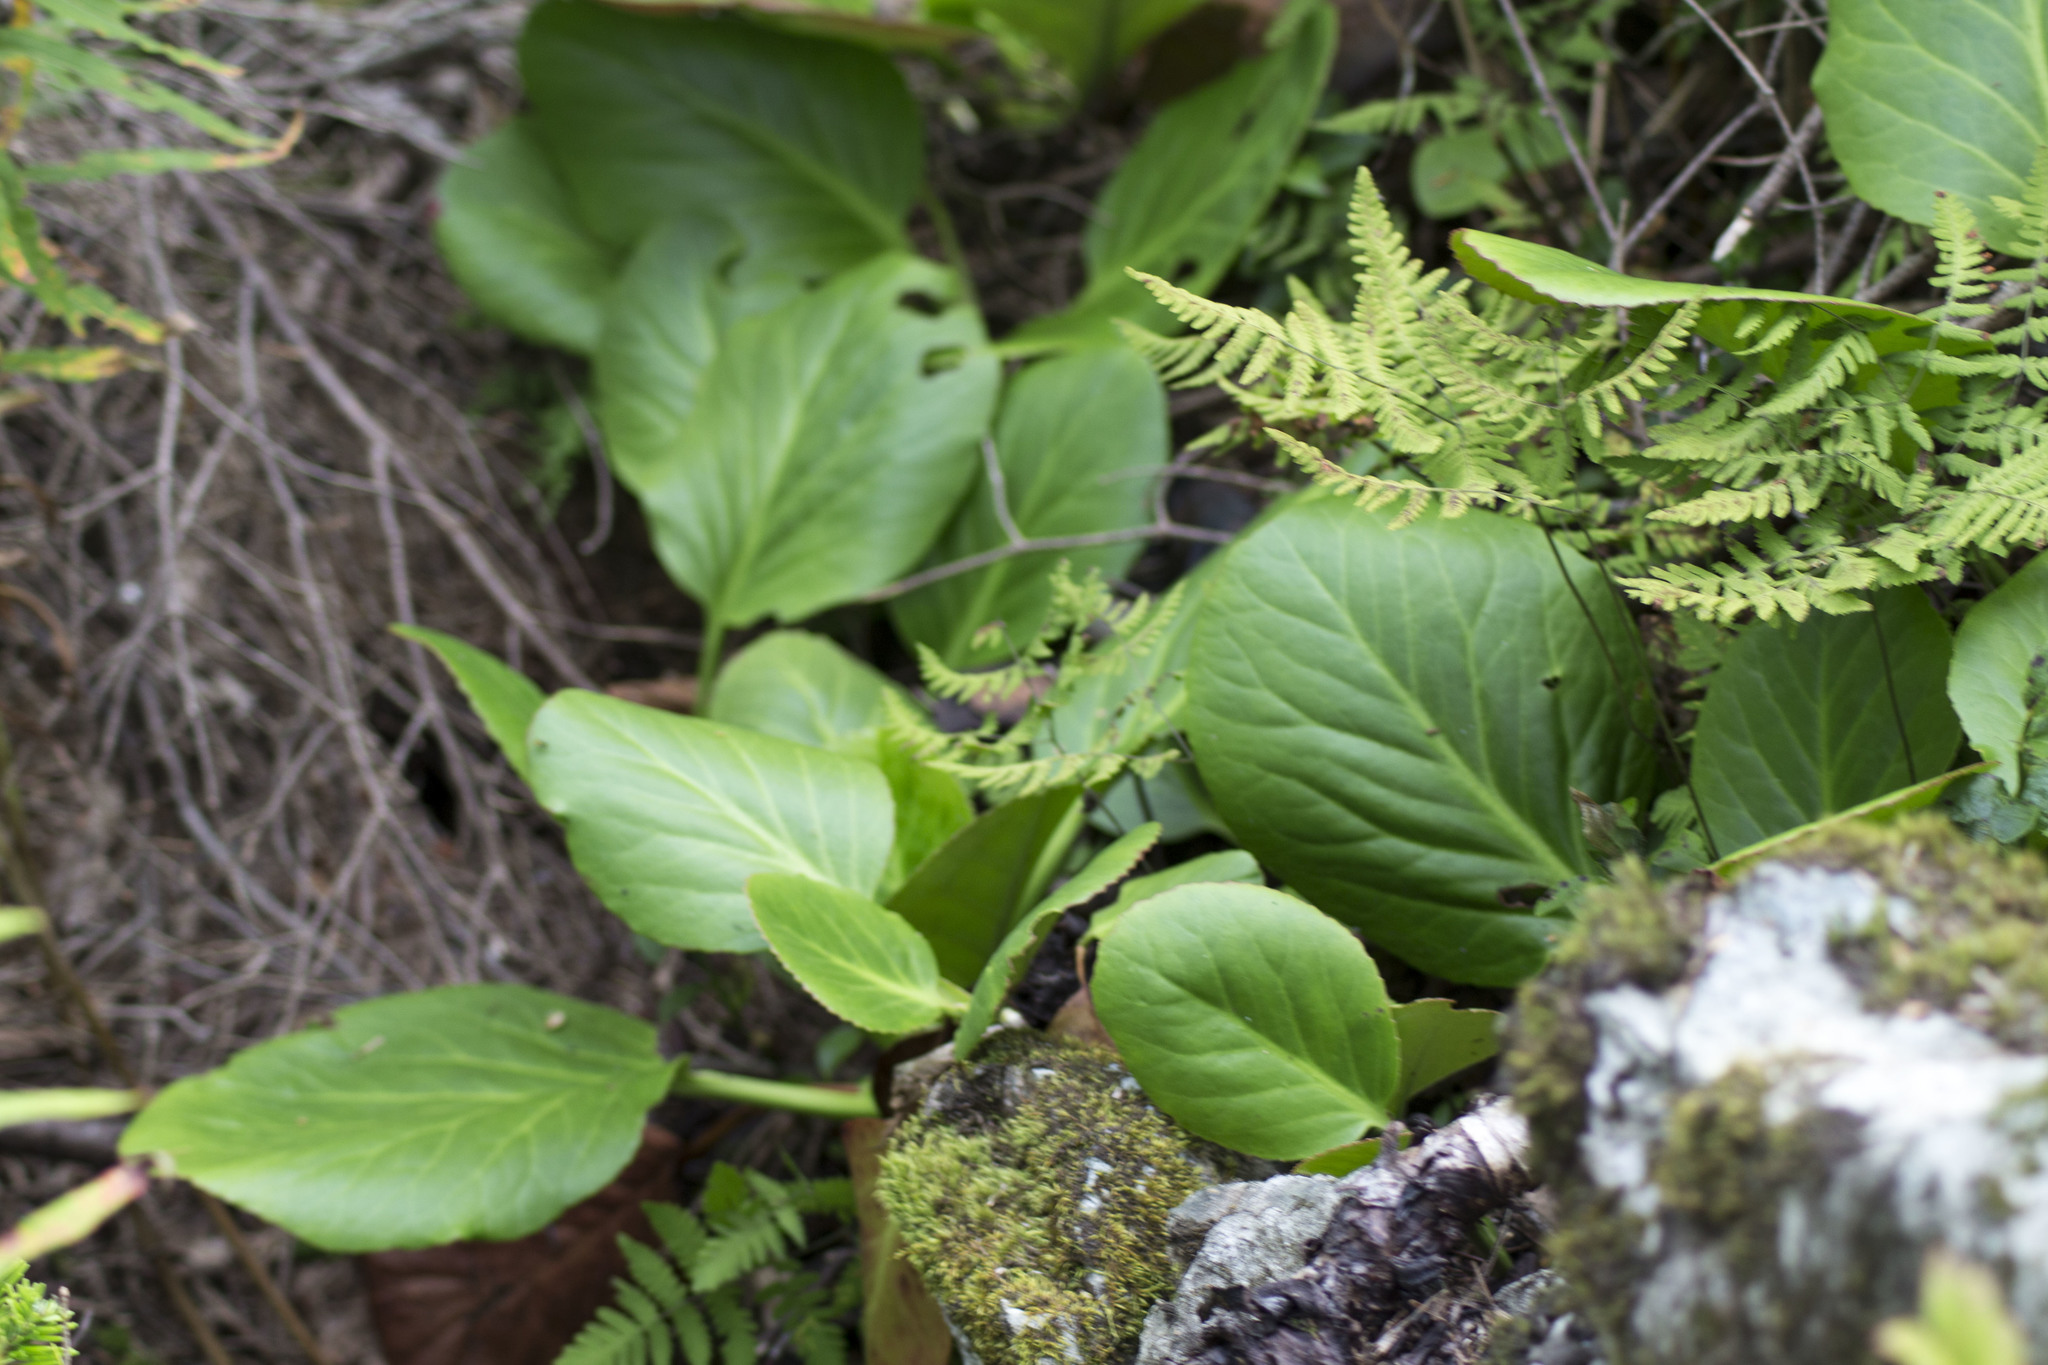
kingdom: Plantae
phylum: Tracheophyta
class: Magnoliopsida
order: Saxifragales
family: Saxifragaceae
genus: Bergenia
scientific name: Bergenia crassifolia
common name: Elephant-ears
